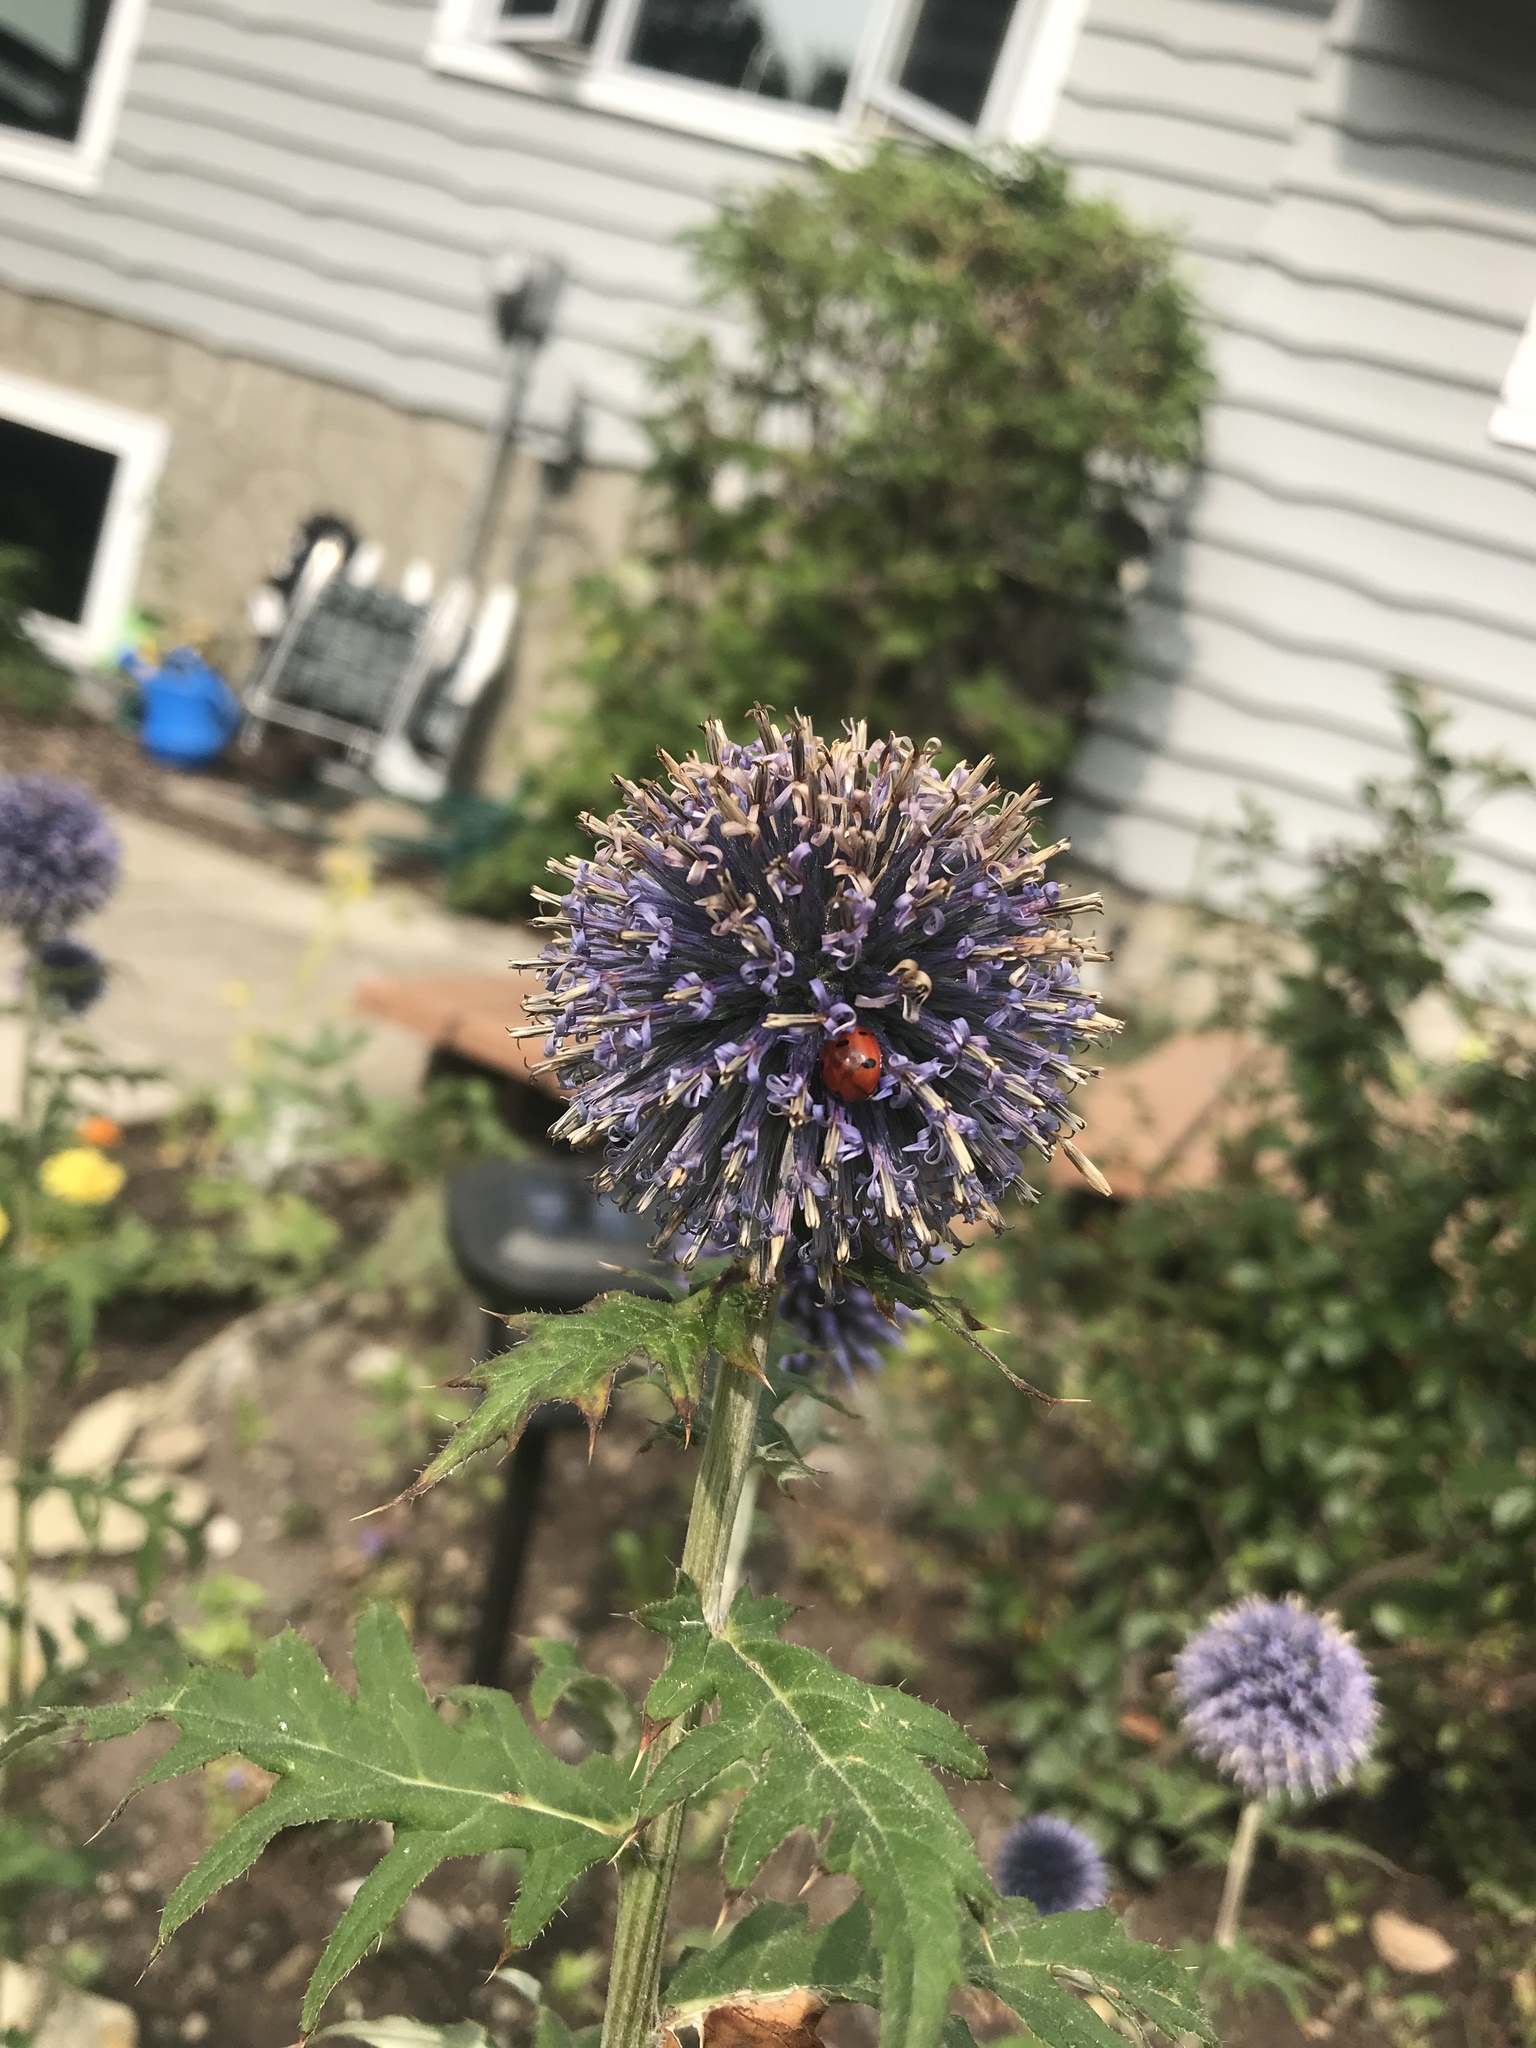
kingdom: Animalia
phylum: Arthropoda
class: Insecta
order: Coleoptera
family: Coccinellidae
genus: Coccinella
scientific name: Coccinella septempunctata
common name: Sevenspotted lady beetle
